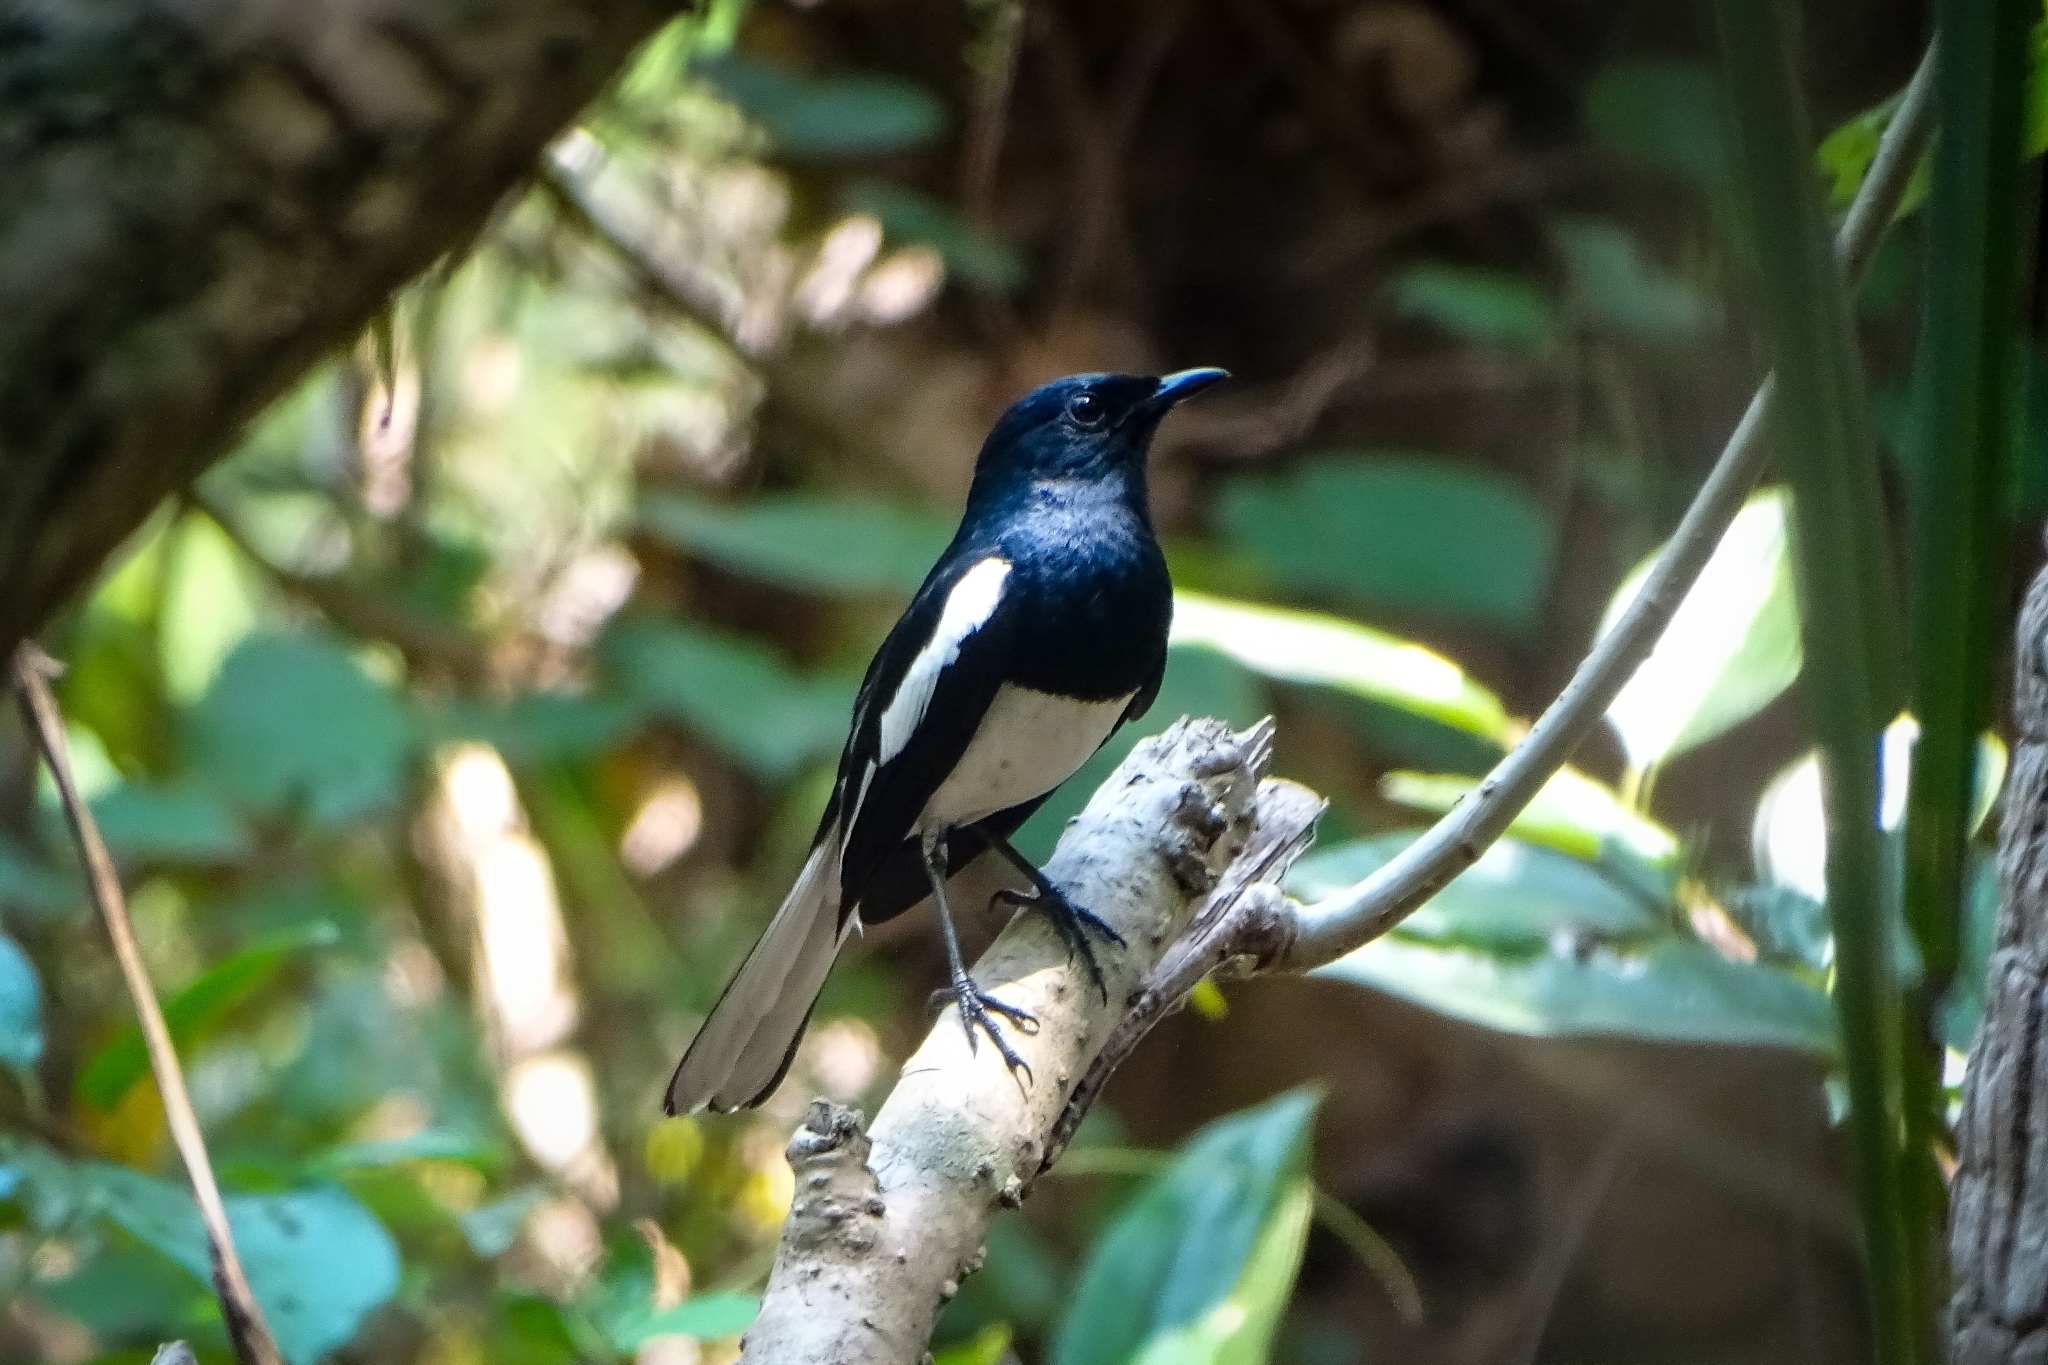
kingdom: Animalia
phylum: Chordata
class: Aves
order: Passeriformes
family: Muscicapidae
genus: Copsychus
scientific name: Copsychus saularis
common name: Oriental magpie-robin
